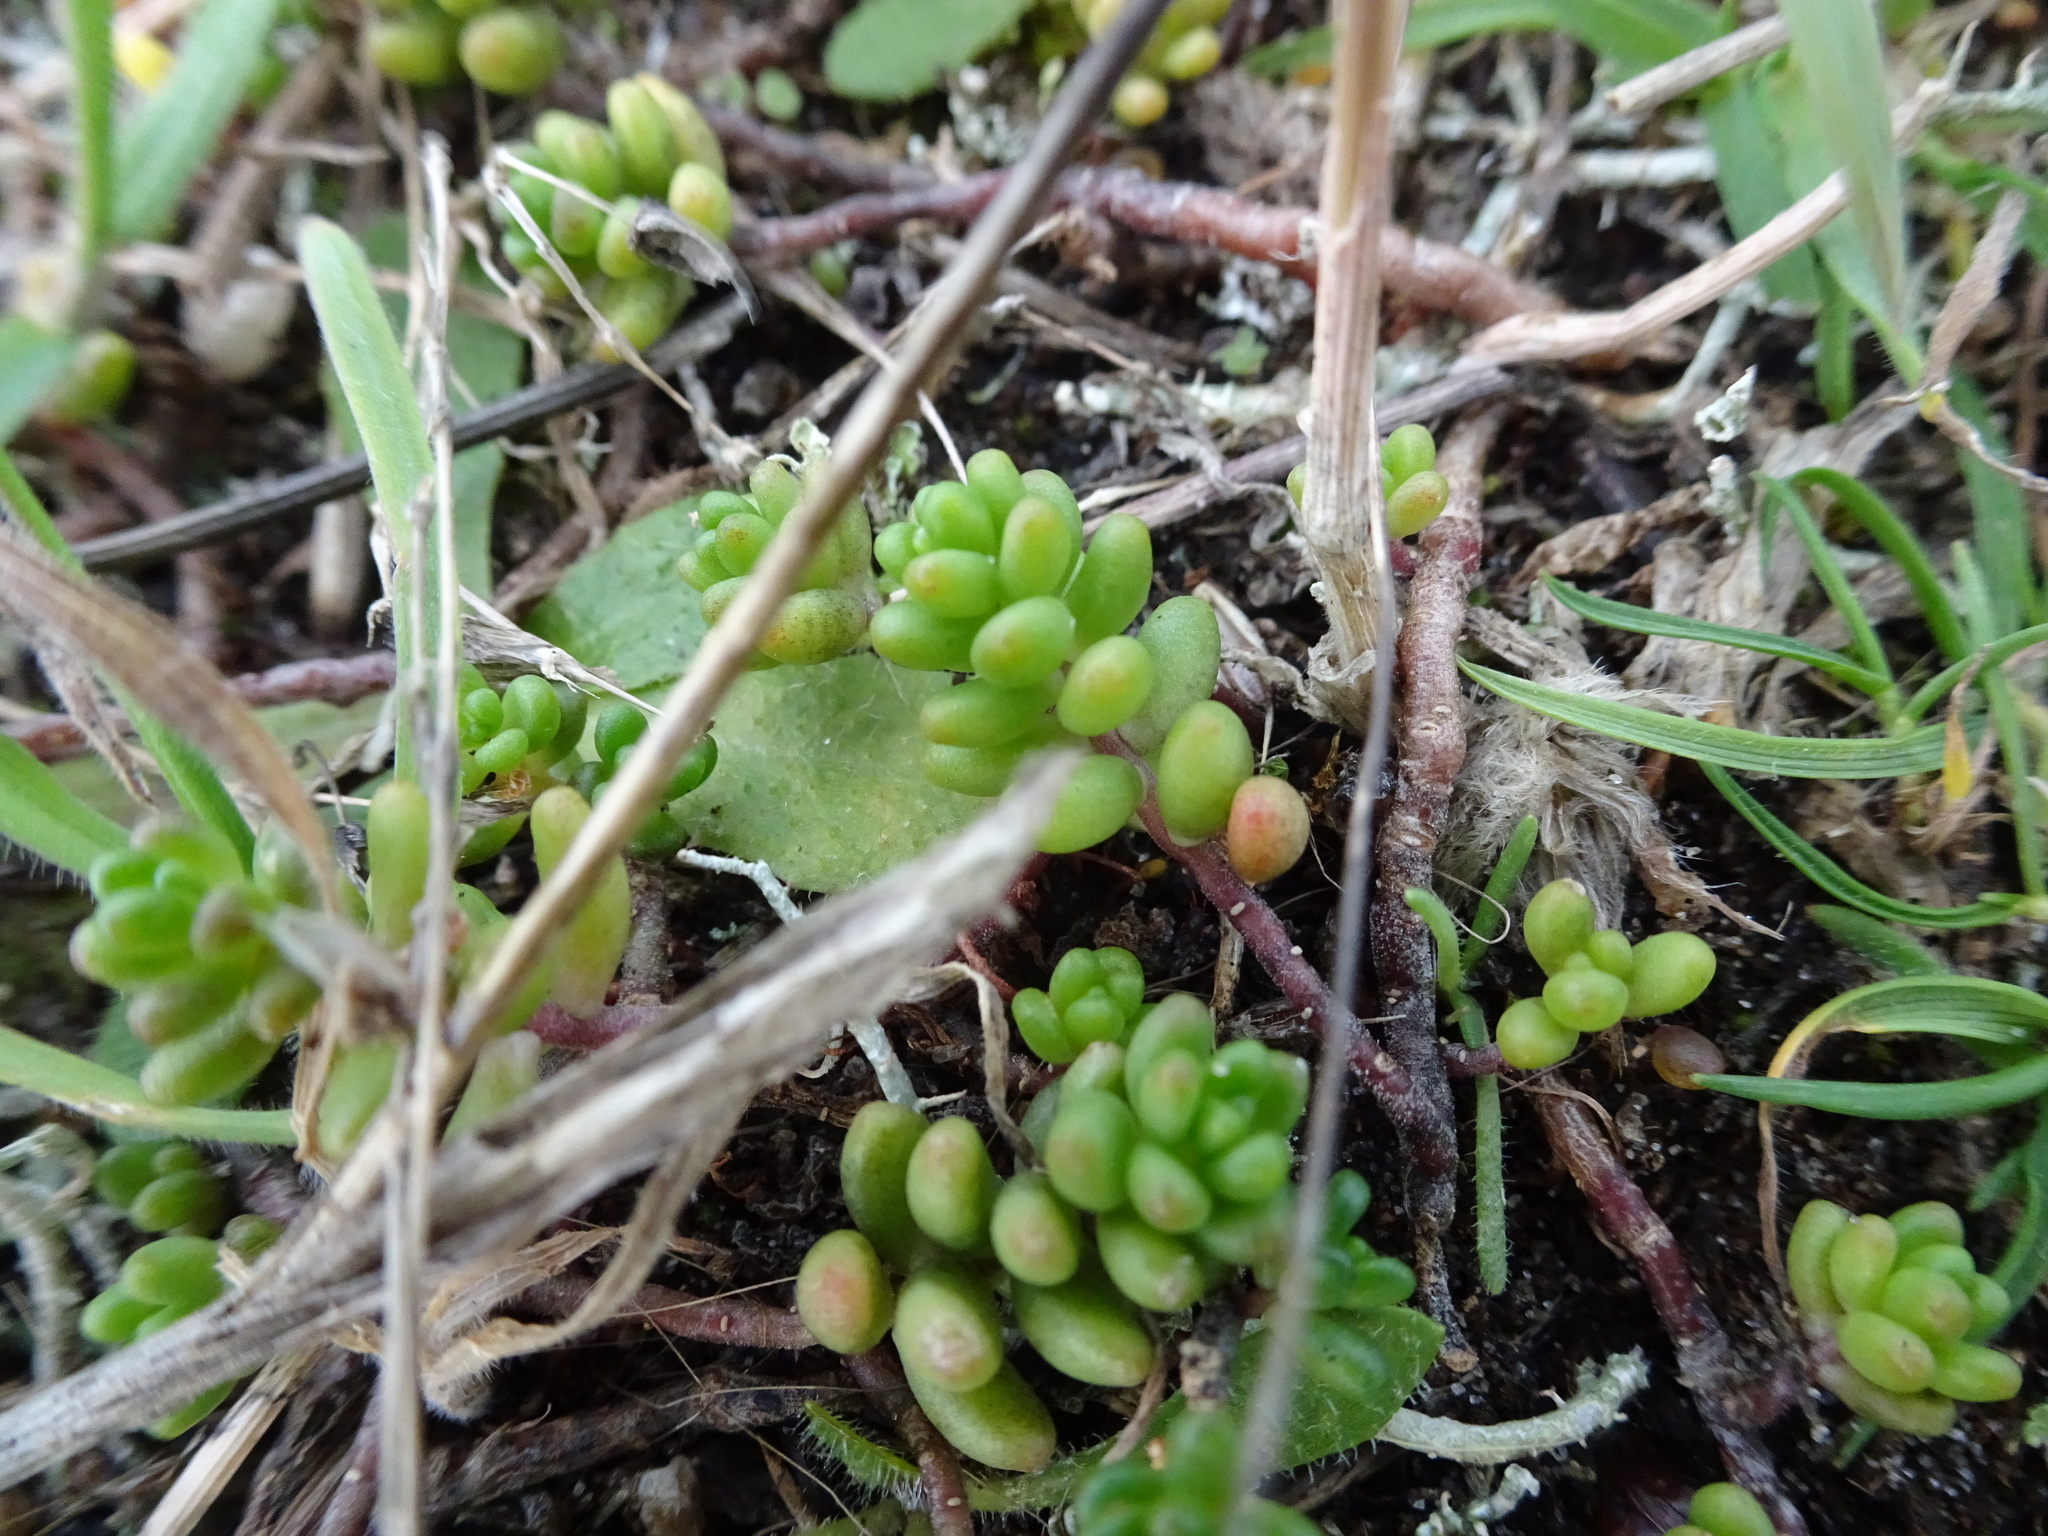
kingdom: Plantae
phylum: Tracheophyta
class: Magnoliopsida
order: Saxifragales
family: Crassulaceae
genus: Sedum
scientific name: Sedum album
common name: White stonecrop
